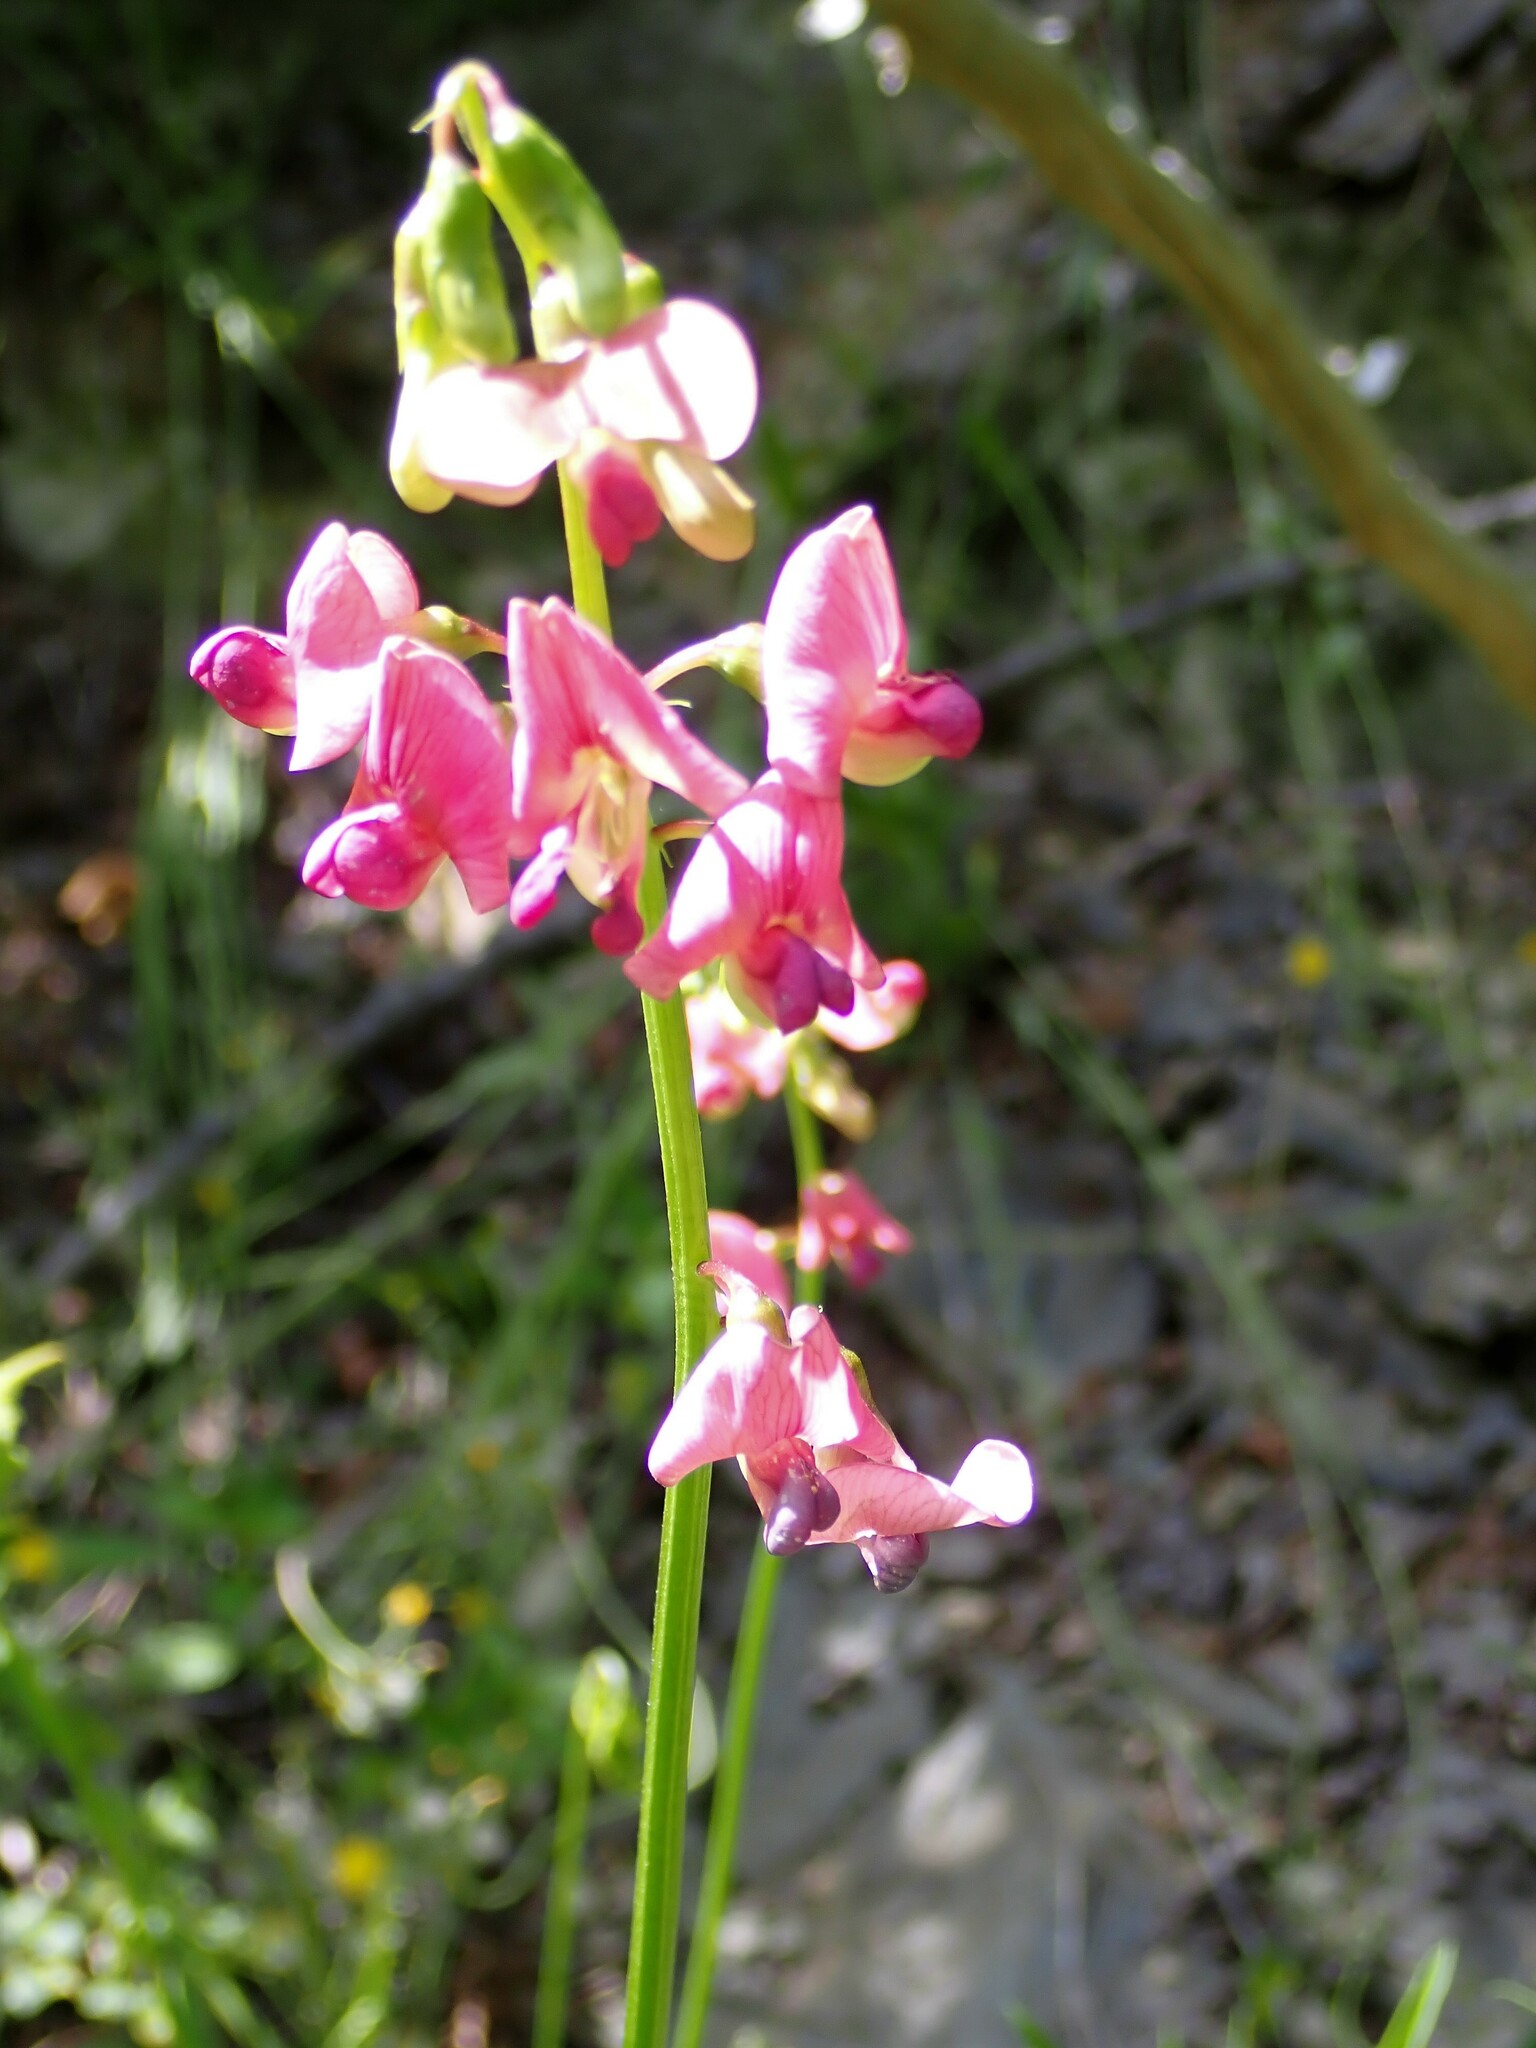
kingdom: Plantae
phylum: Tracheophyta
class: Magnoliopsida
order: Fabales
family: Fabaceae
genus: Lathyrus
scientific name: Lathyrus sylvestris
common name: Flat pea
